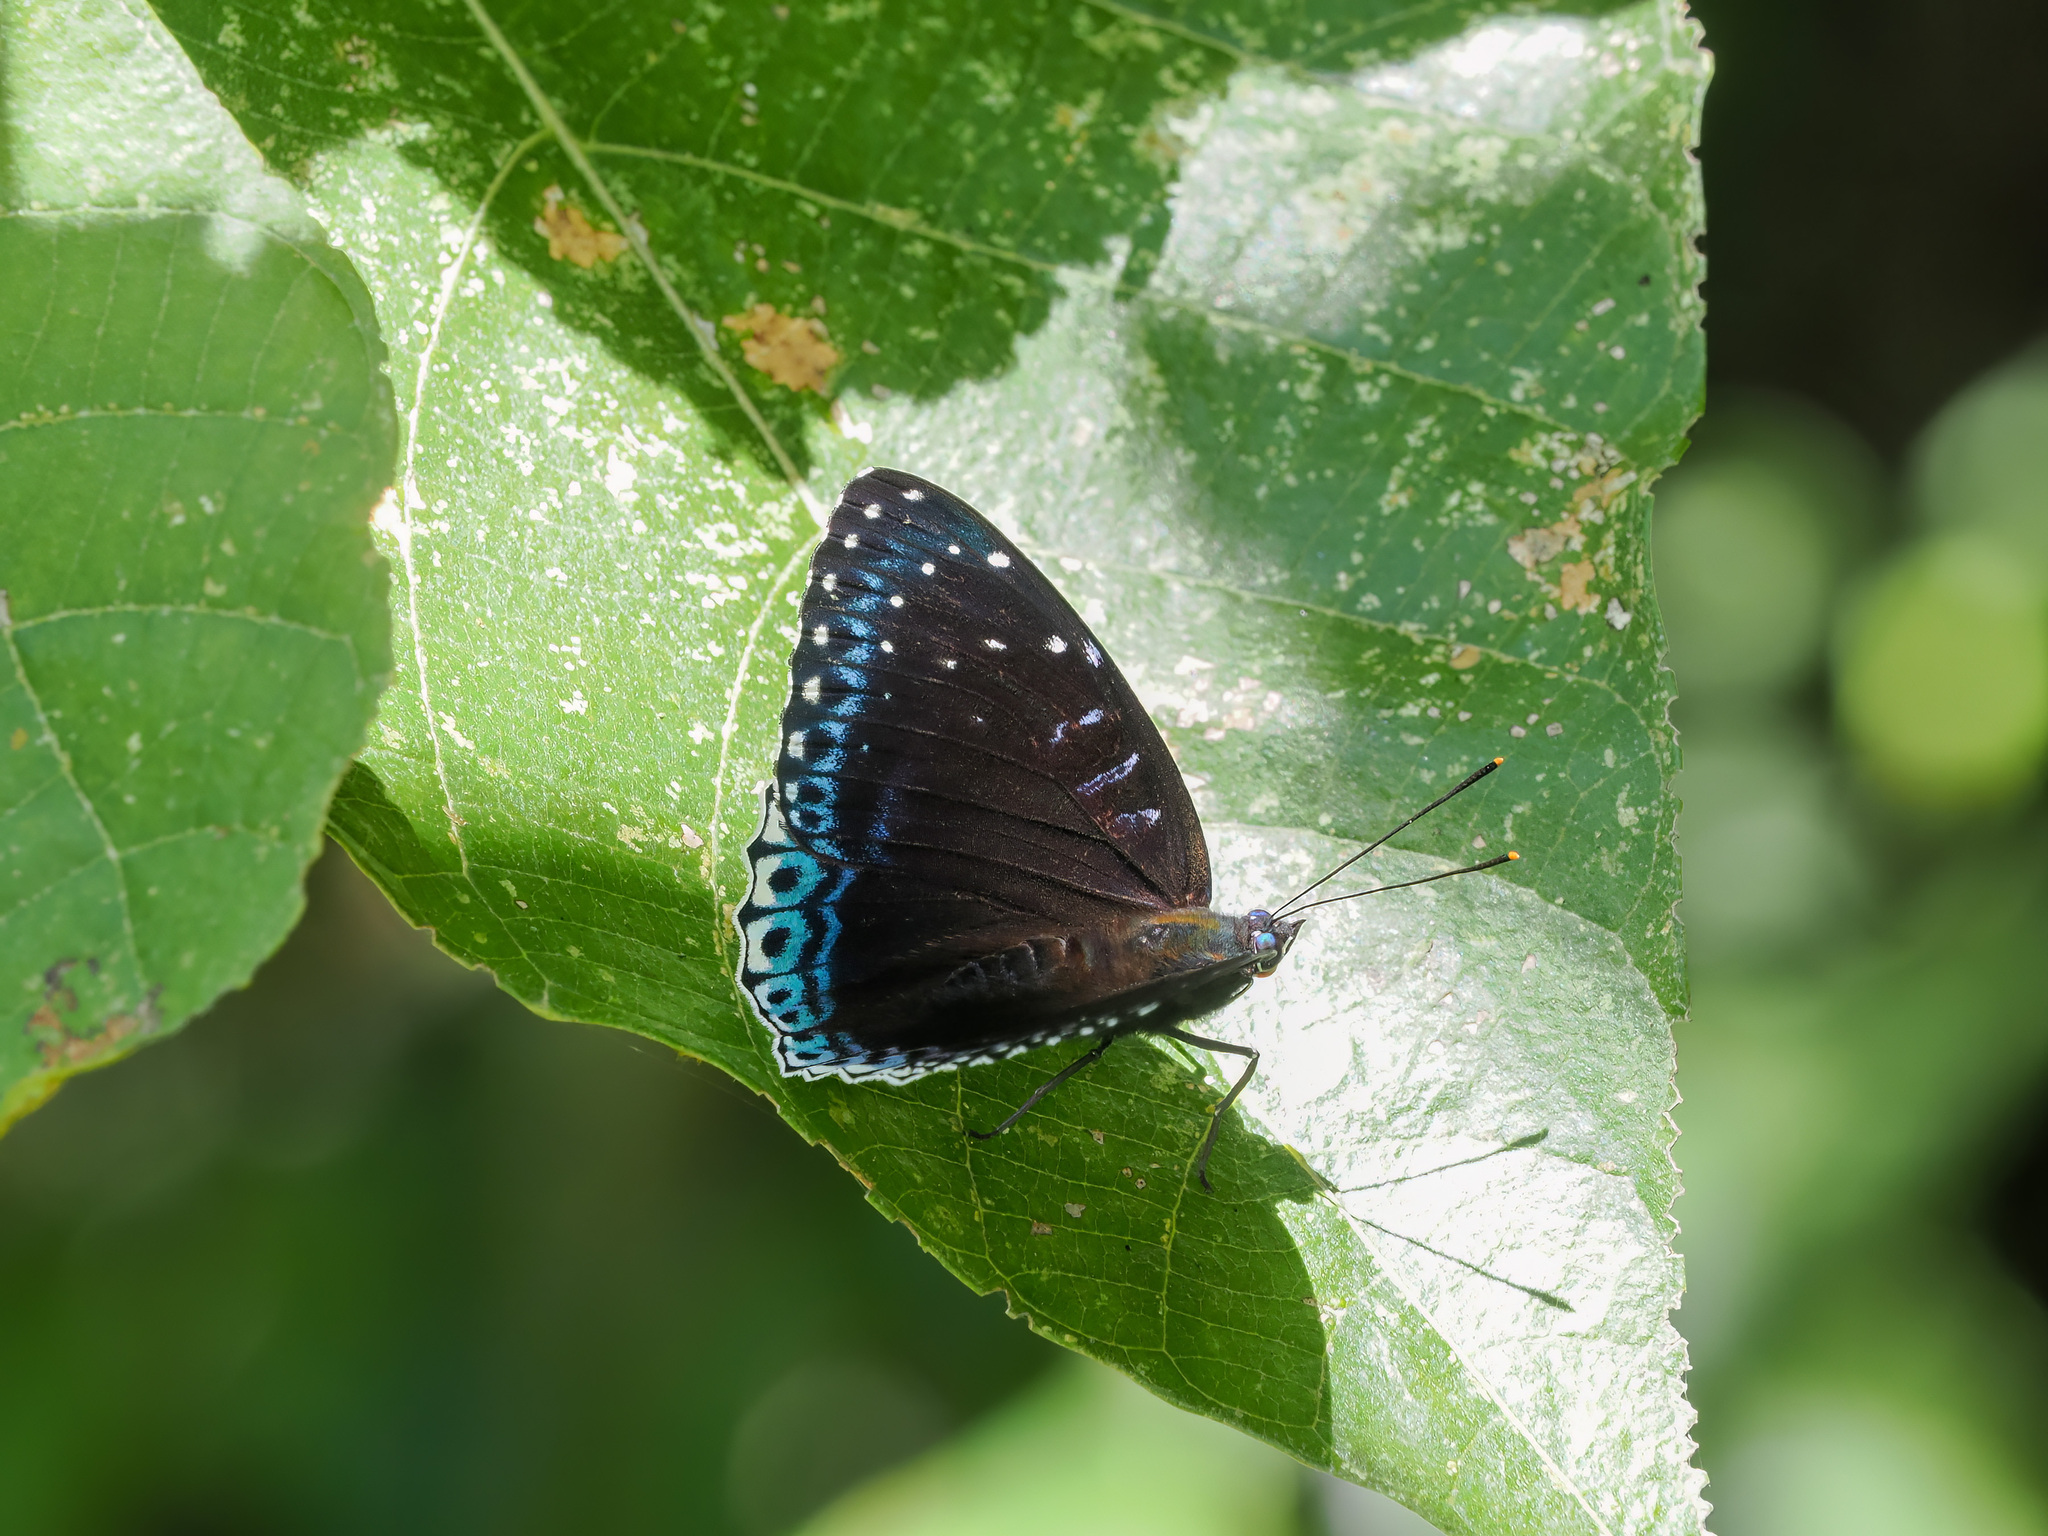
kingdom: Animalia
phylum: Arthropoda
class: Insecta
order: Lepidoptera
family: Nymphalidae
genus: Stibochiona
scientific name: Stibochiona nicea
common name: Popinjay
